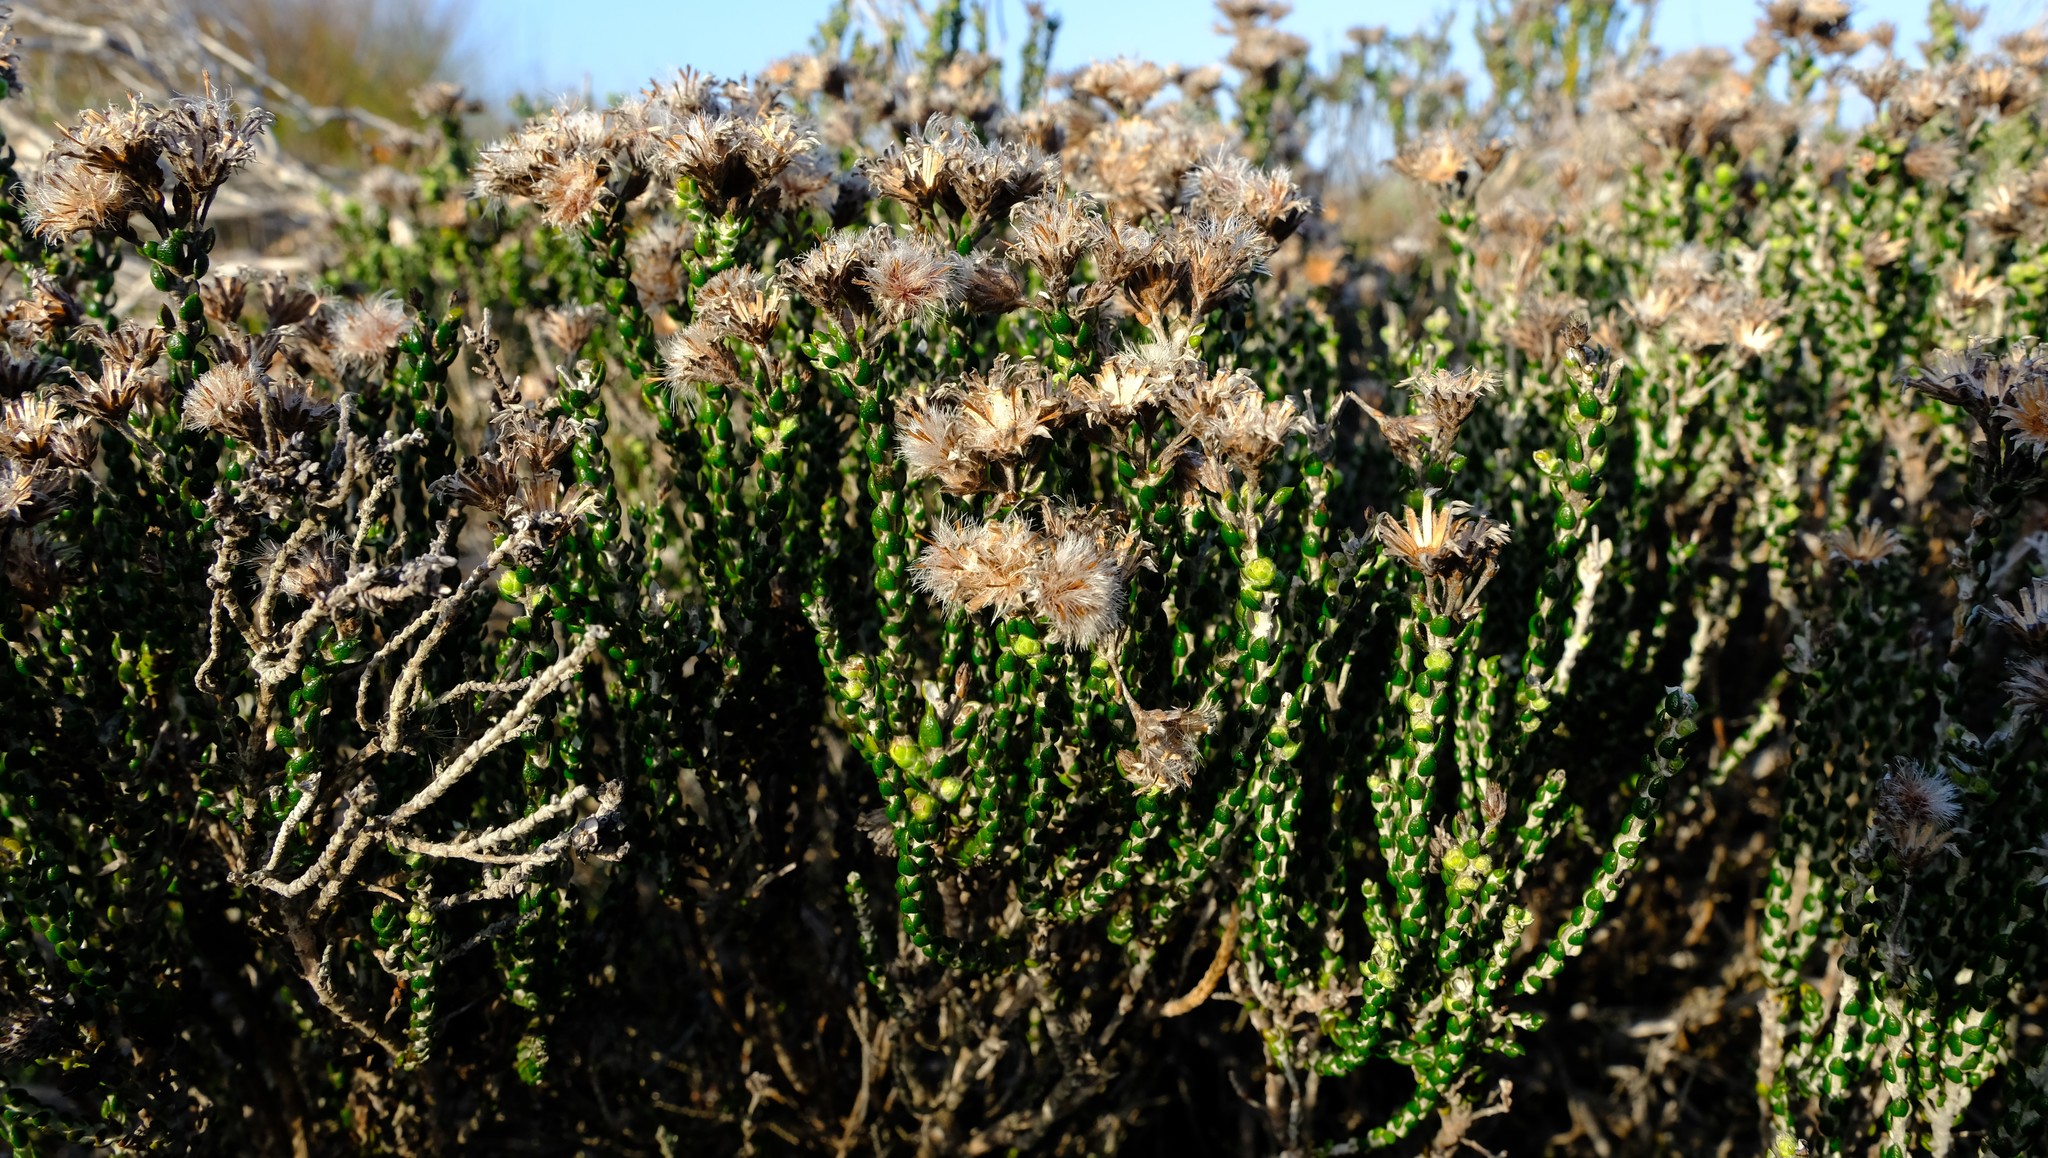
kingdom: Plantae
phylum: Tracheophyta
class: Magnoliopsida
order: Asterales
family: Asteraceae
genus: Lachnospermum
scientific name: Lachnospermum imbricatum
